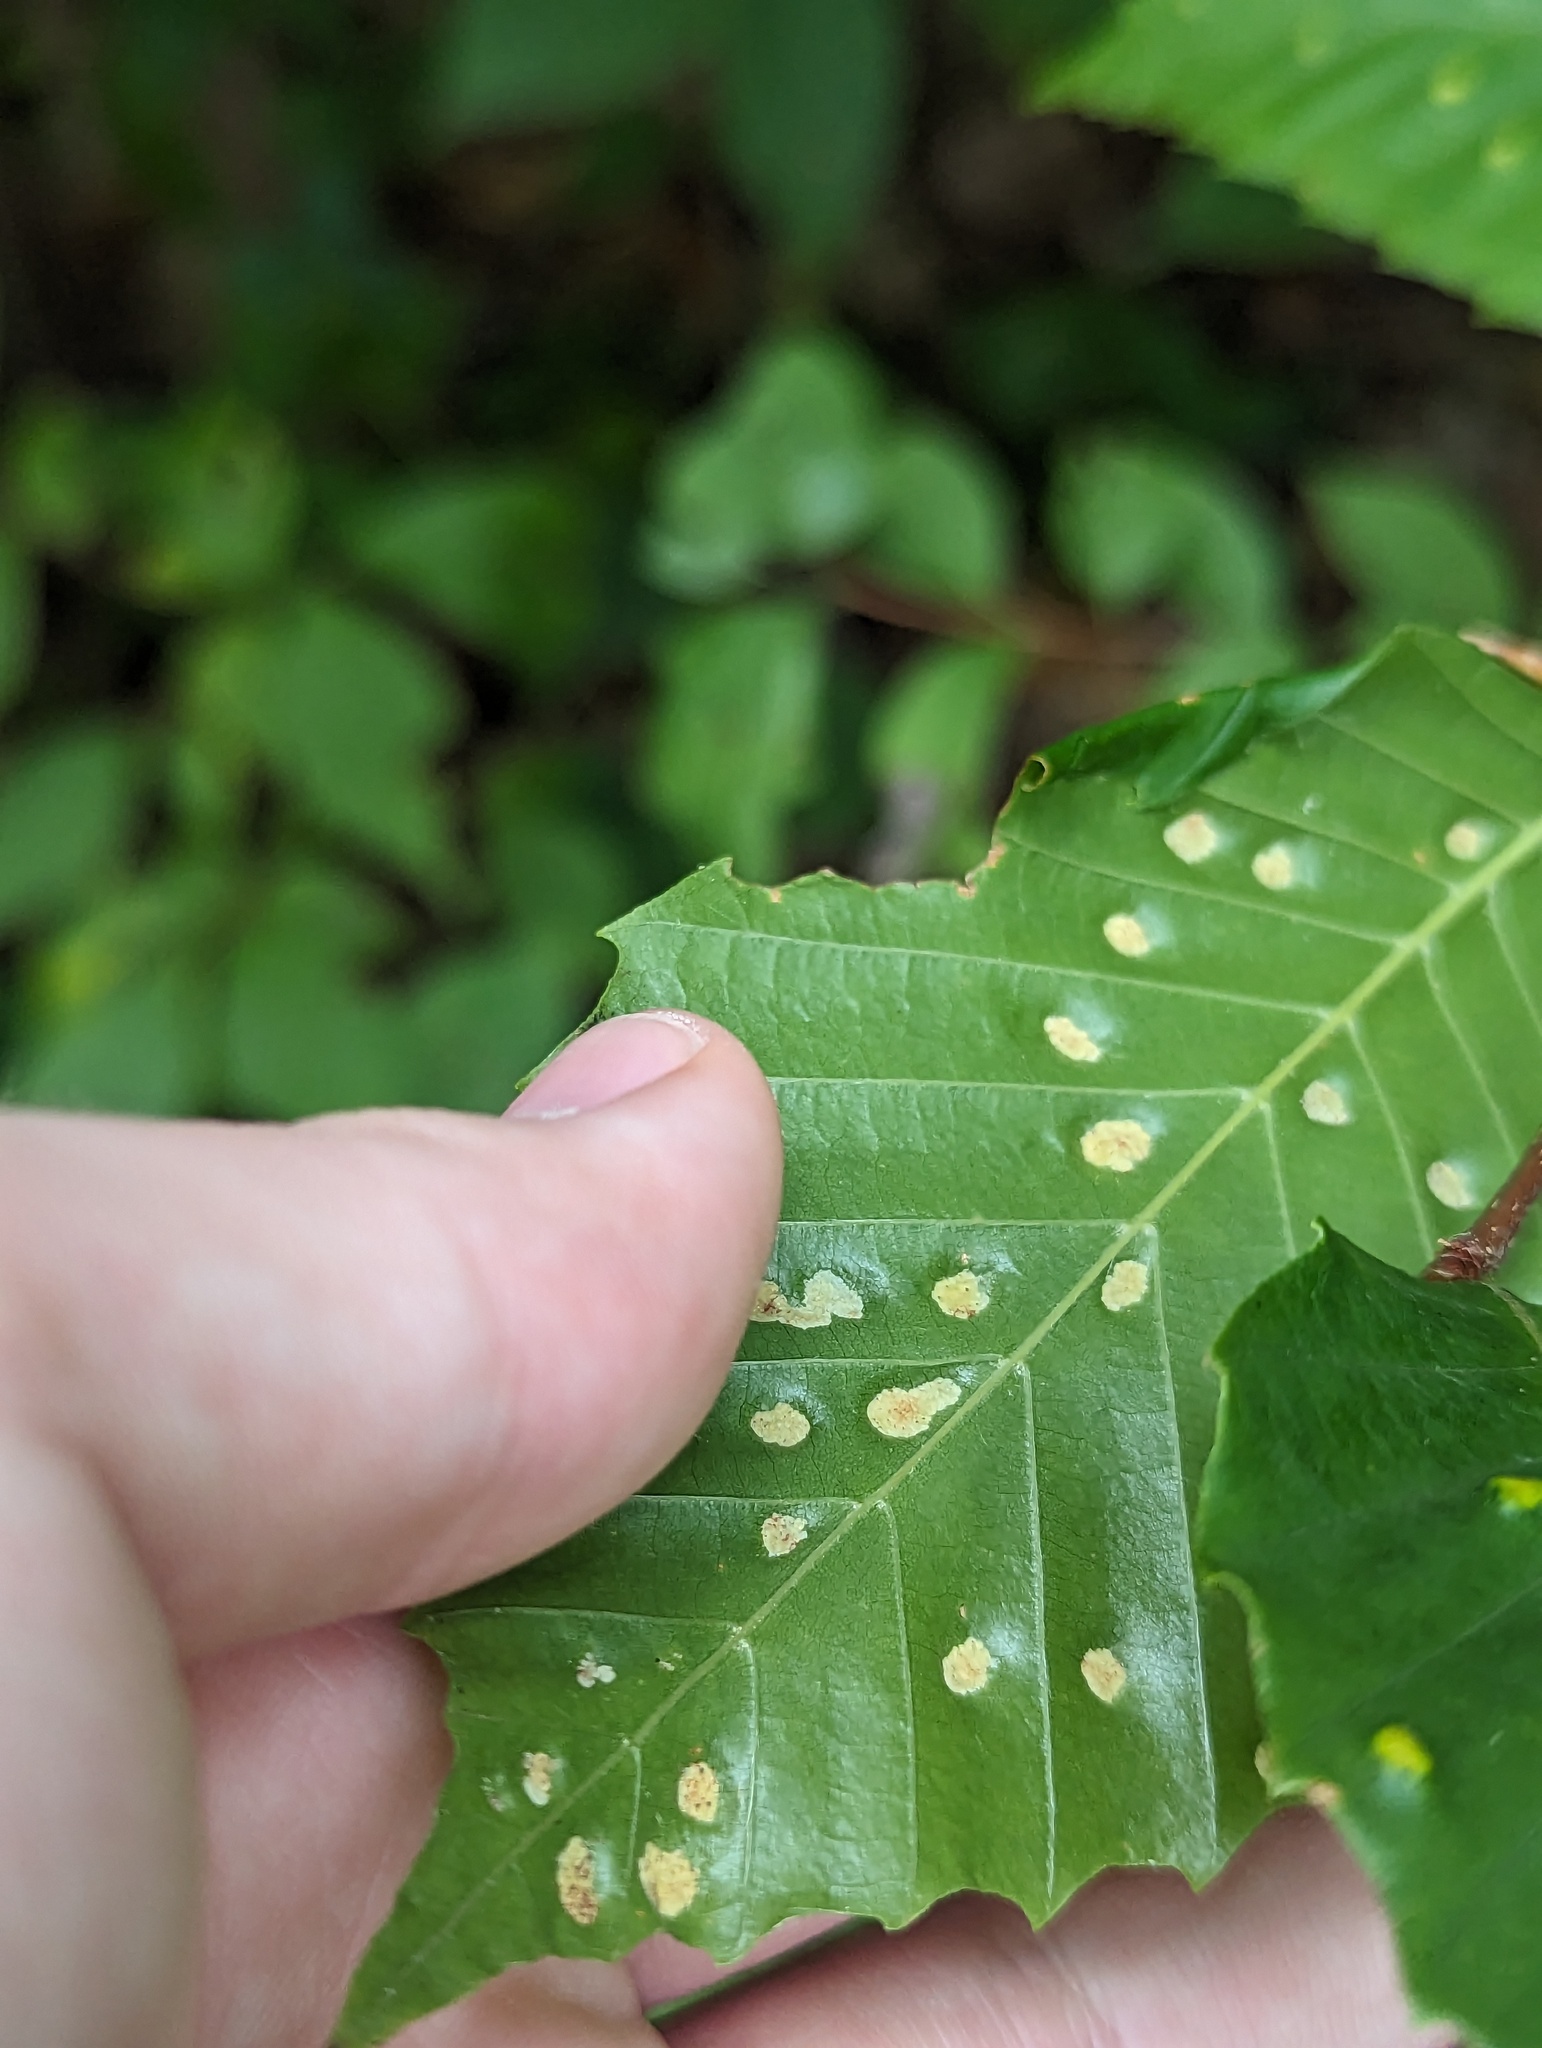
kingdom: Animalia
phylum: Arthropoda
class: Arachnida
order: Trombidiformes
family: Eriophyidae
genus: Acalitus
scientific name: Acalitus
